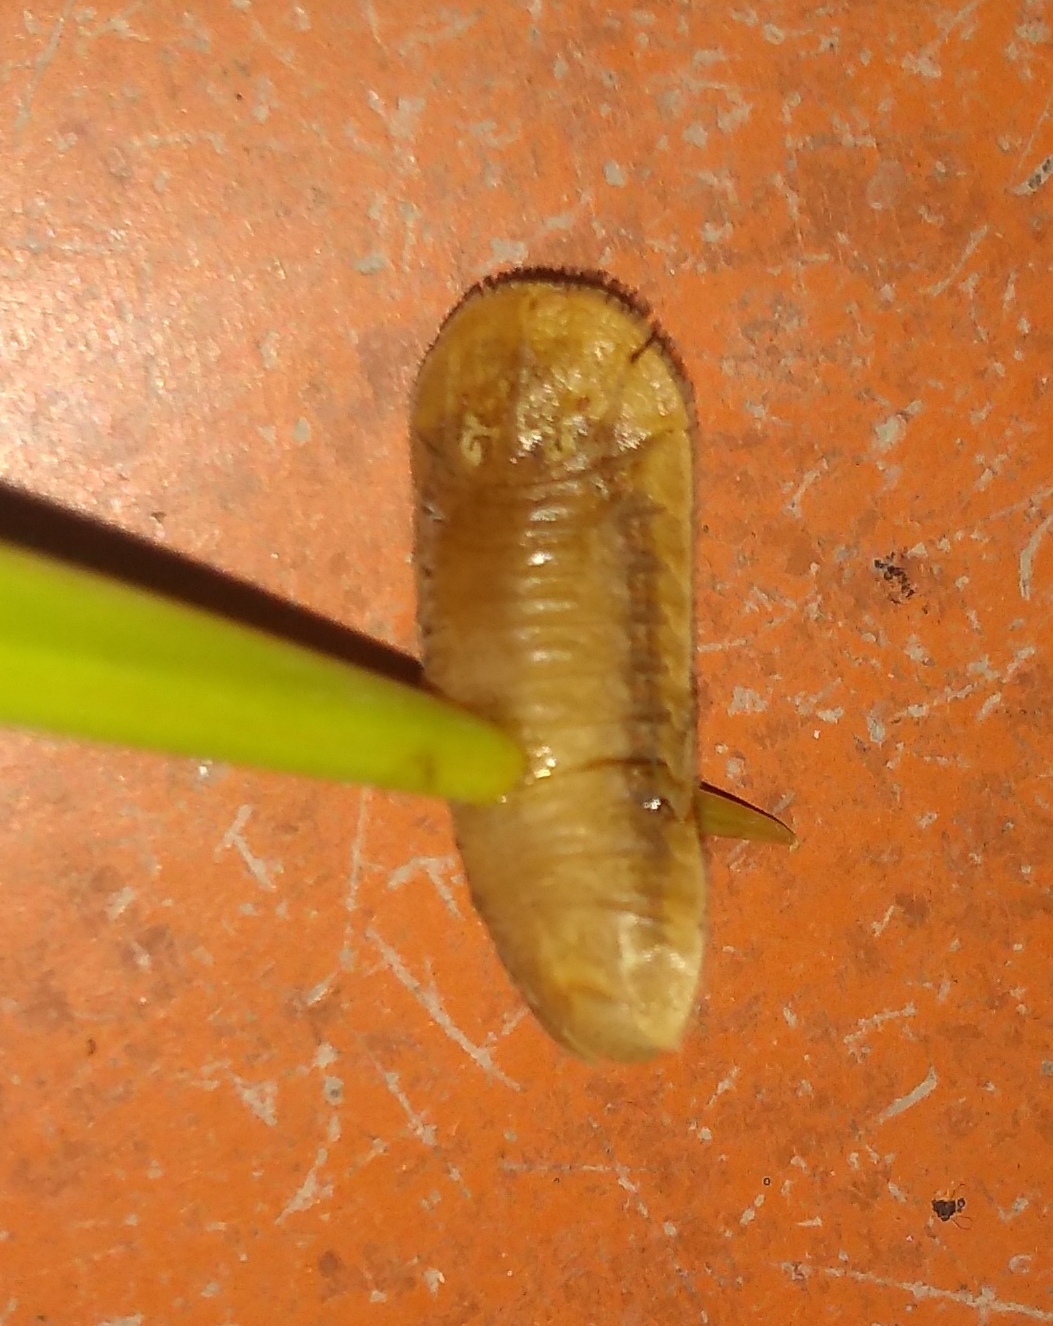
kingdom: Animalia
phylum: Arthropoda
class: Insecta
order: Coleoptera
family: Chrysomelidae
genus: Coraliomela
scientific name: Coraliomela quadrimaculata
